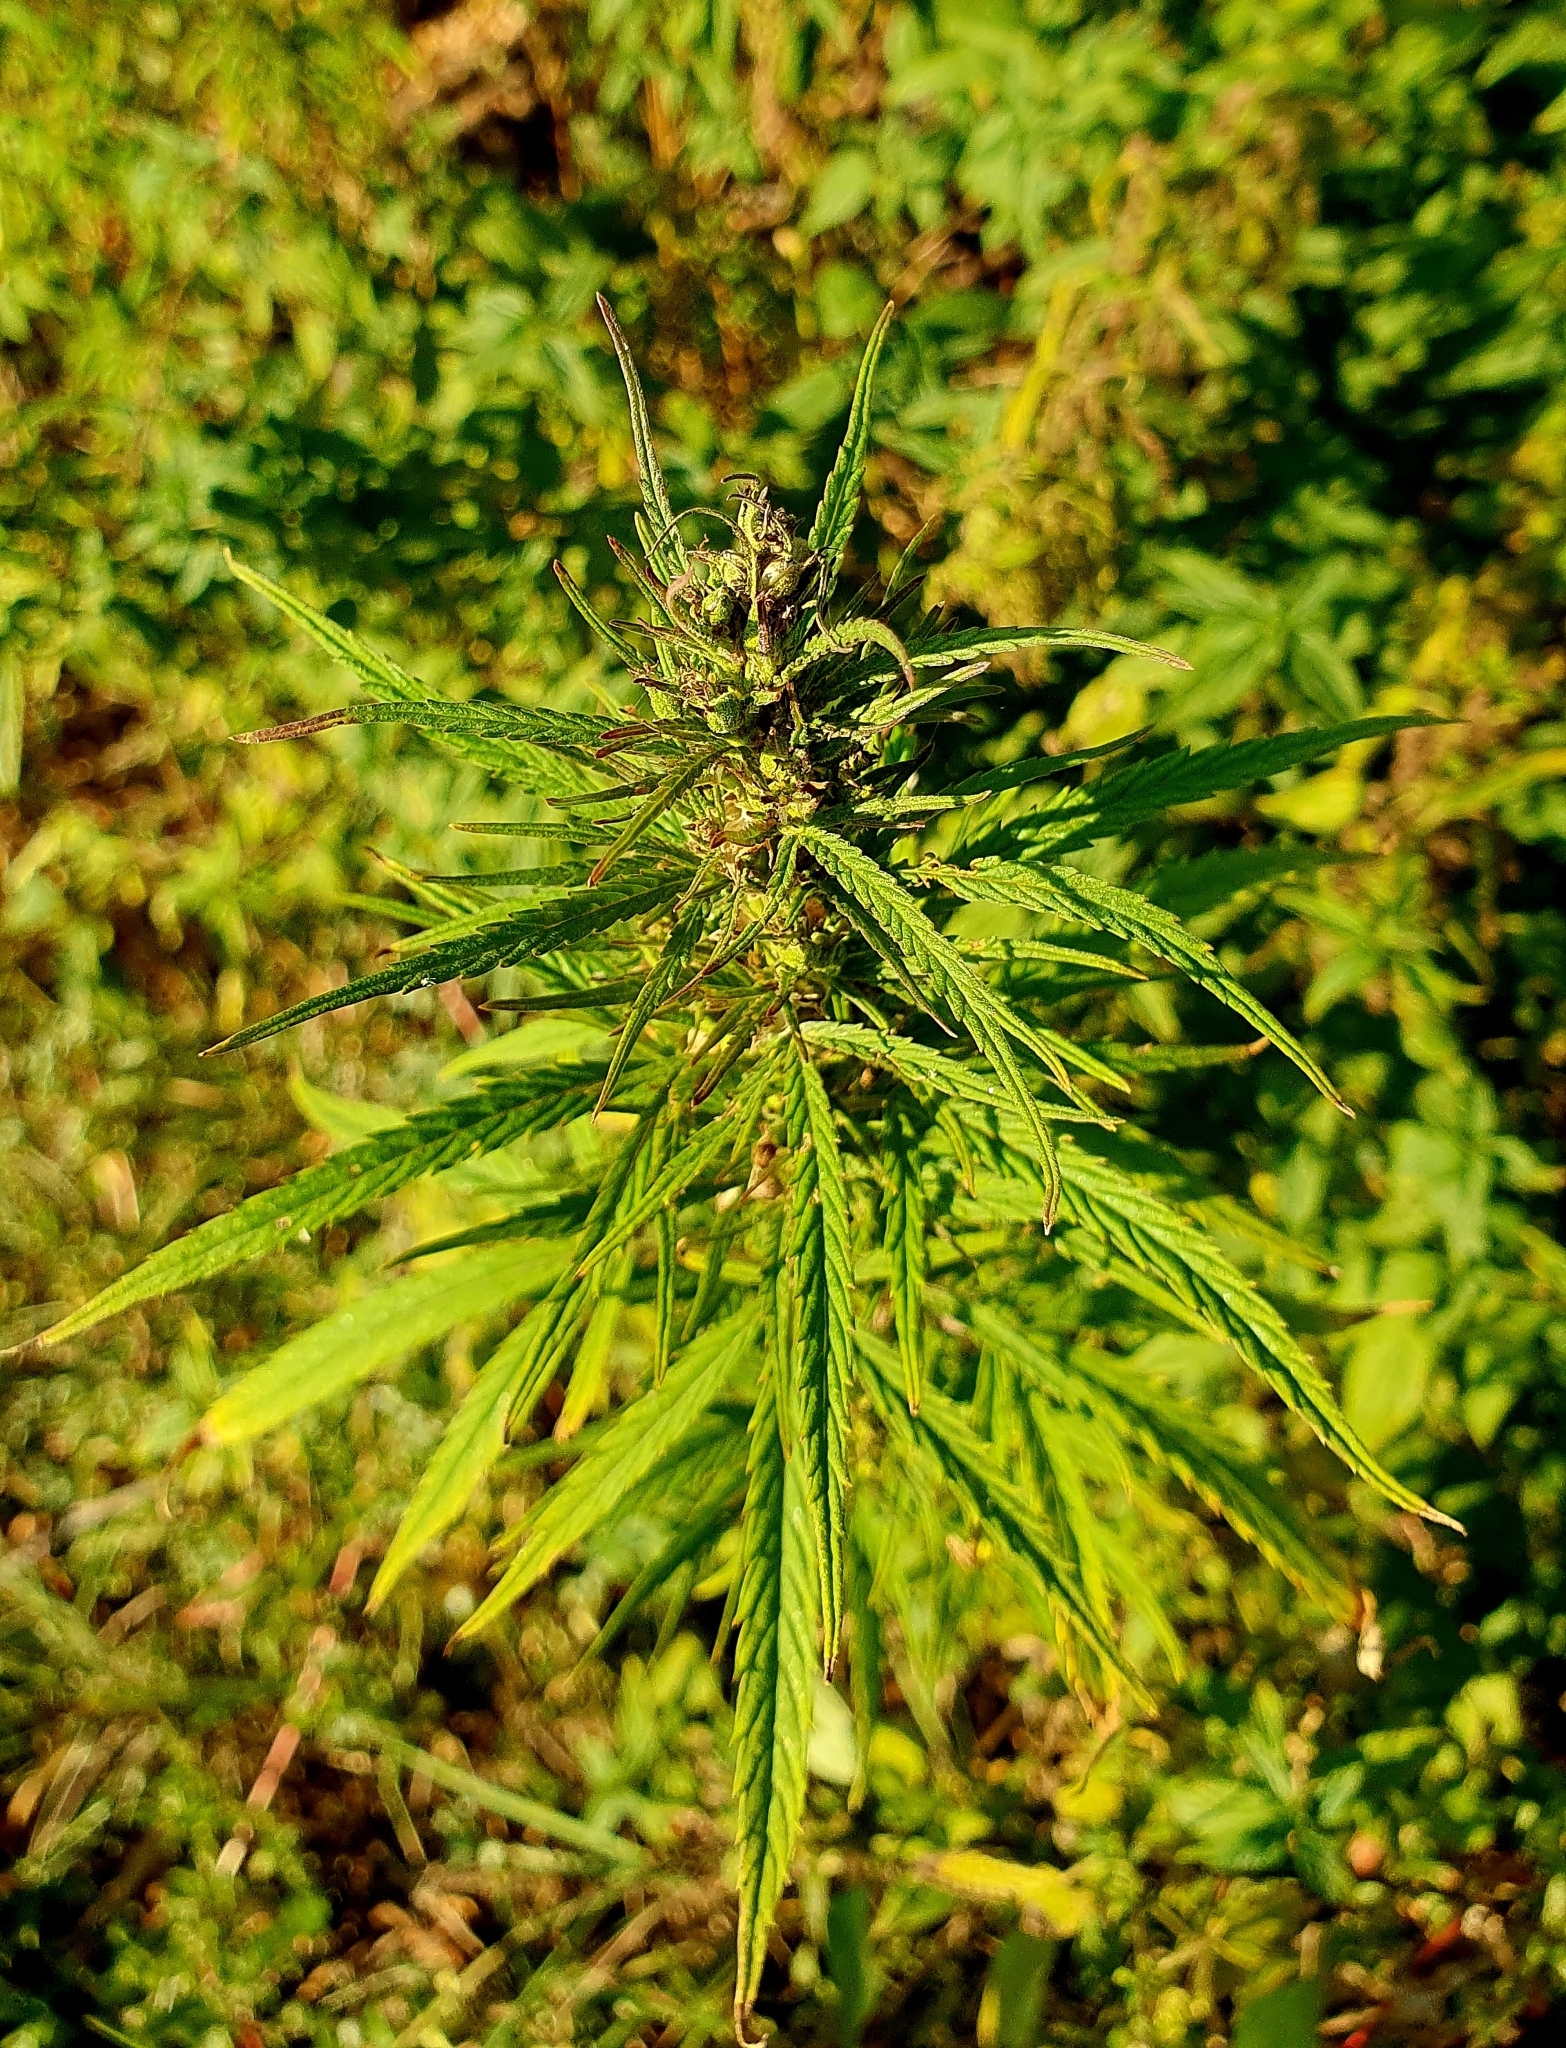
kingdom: Plantae
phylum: Tracheophyta
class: Magnoliopsida
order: Rosales
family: Cannabaceae
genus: Cannabis
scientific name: Cannabis sativa
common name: Hemp
